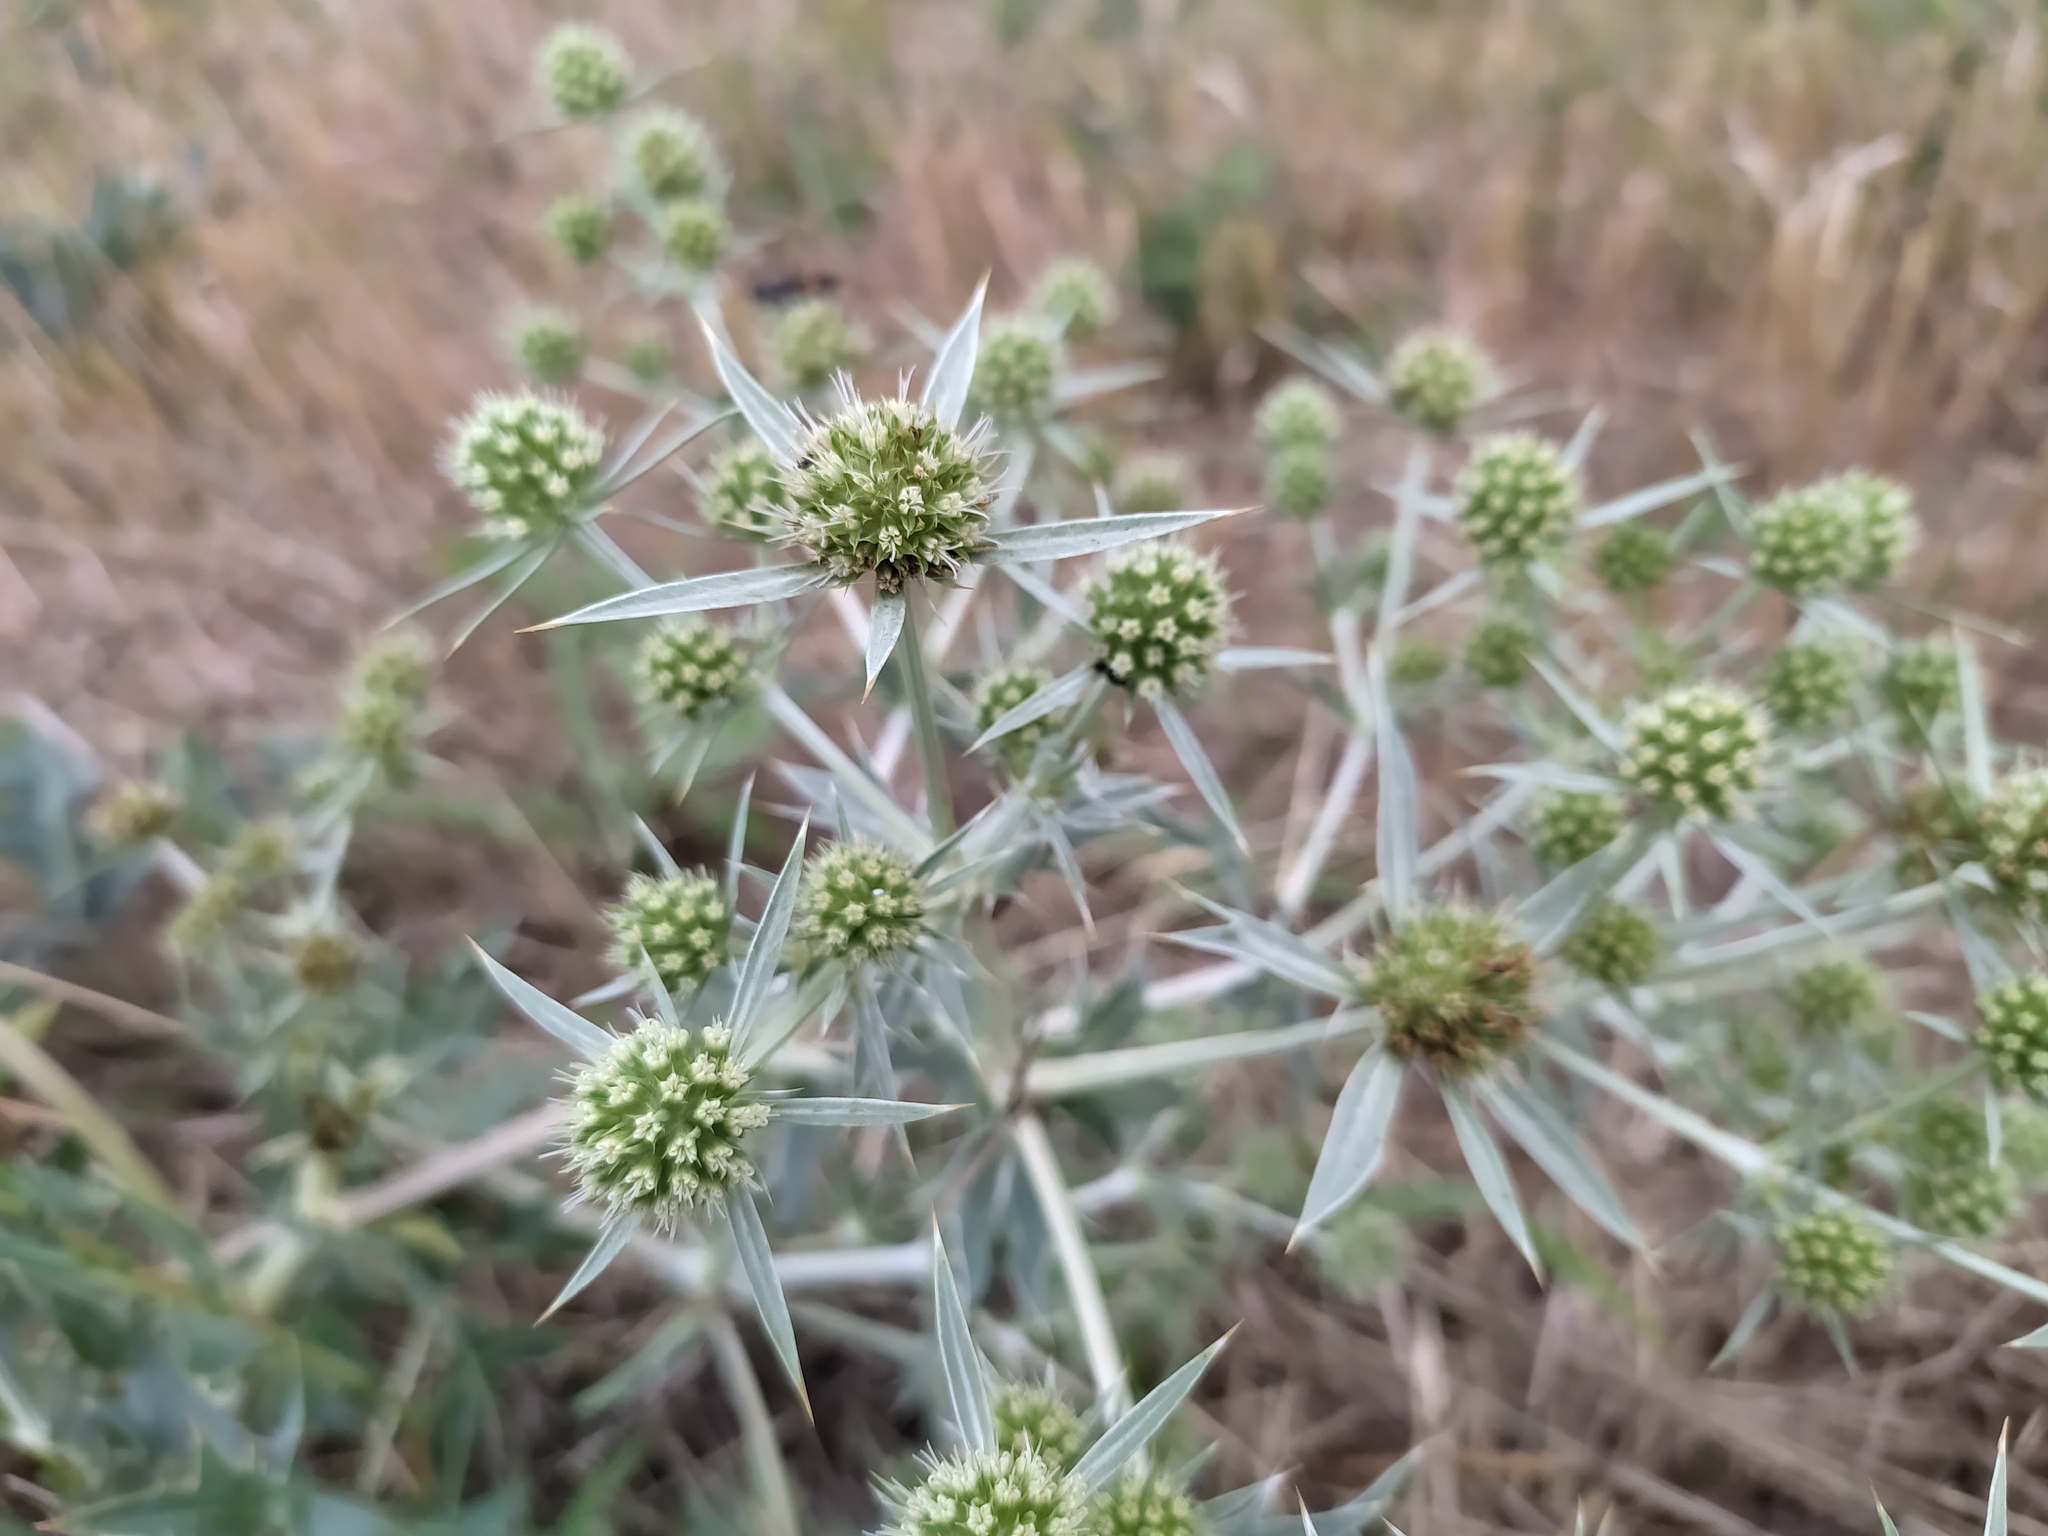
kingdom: Plantae
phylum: Tracheophyta
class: Magnoliopsida
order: Apiales
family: Apiaceae
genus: Eryngium
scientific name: Eryngium campestre
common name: Field eryngo
